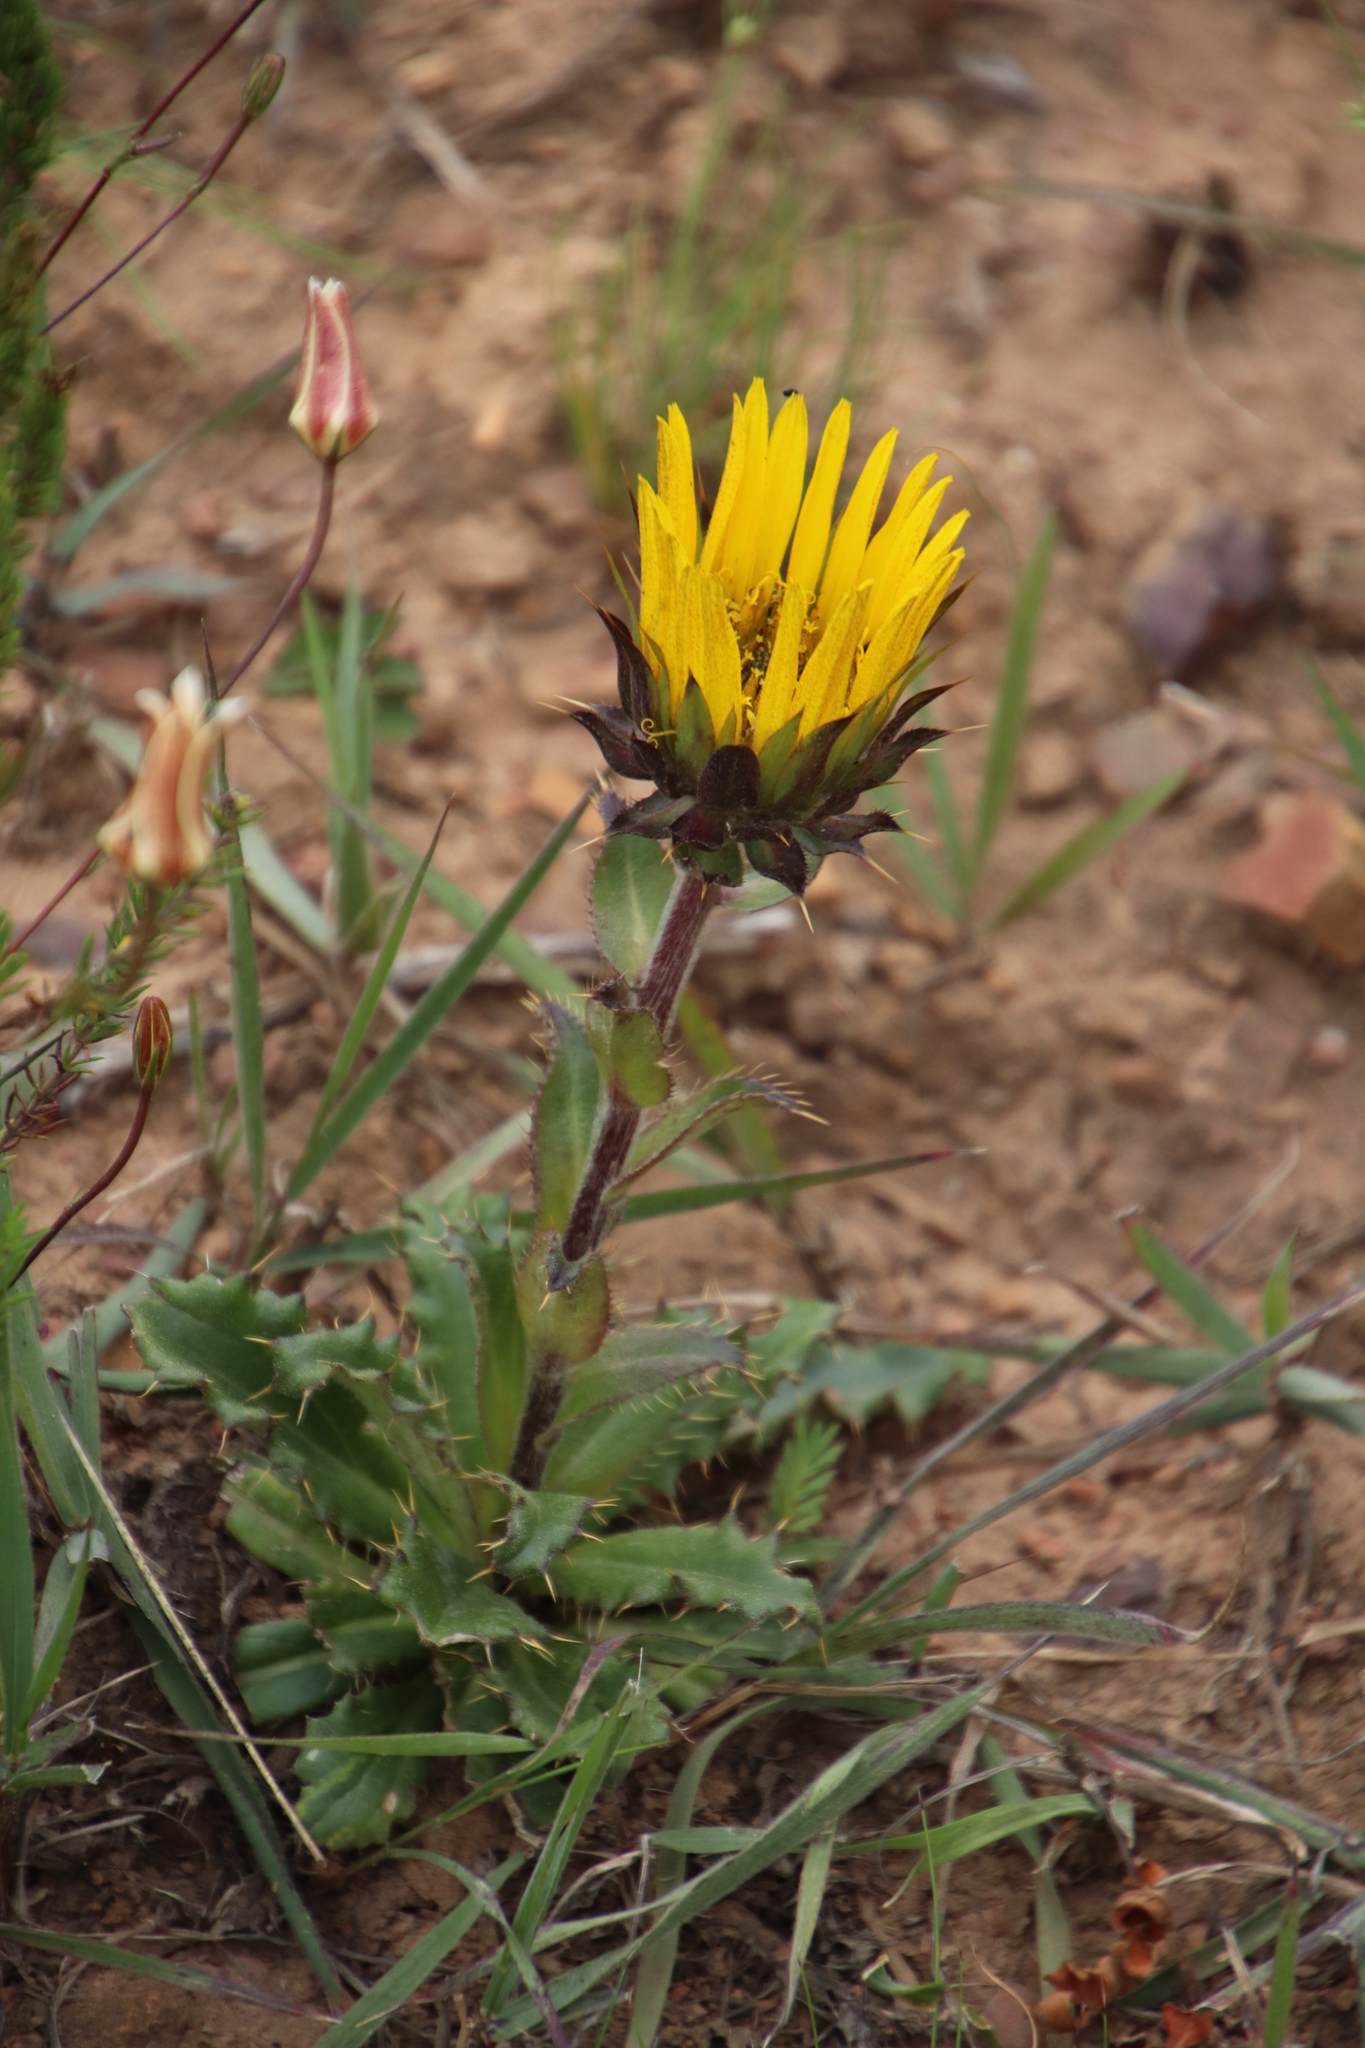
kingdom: Plantae
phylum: Tracheophyta
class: Magnoliopsida
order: Asterales
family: Asteraceae
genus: Berkheya
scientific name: Berkheya armata
